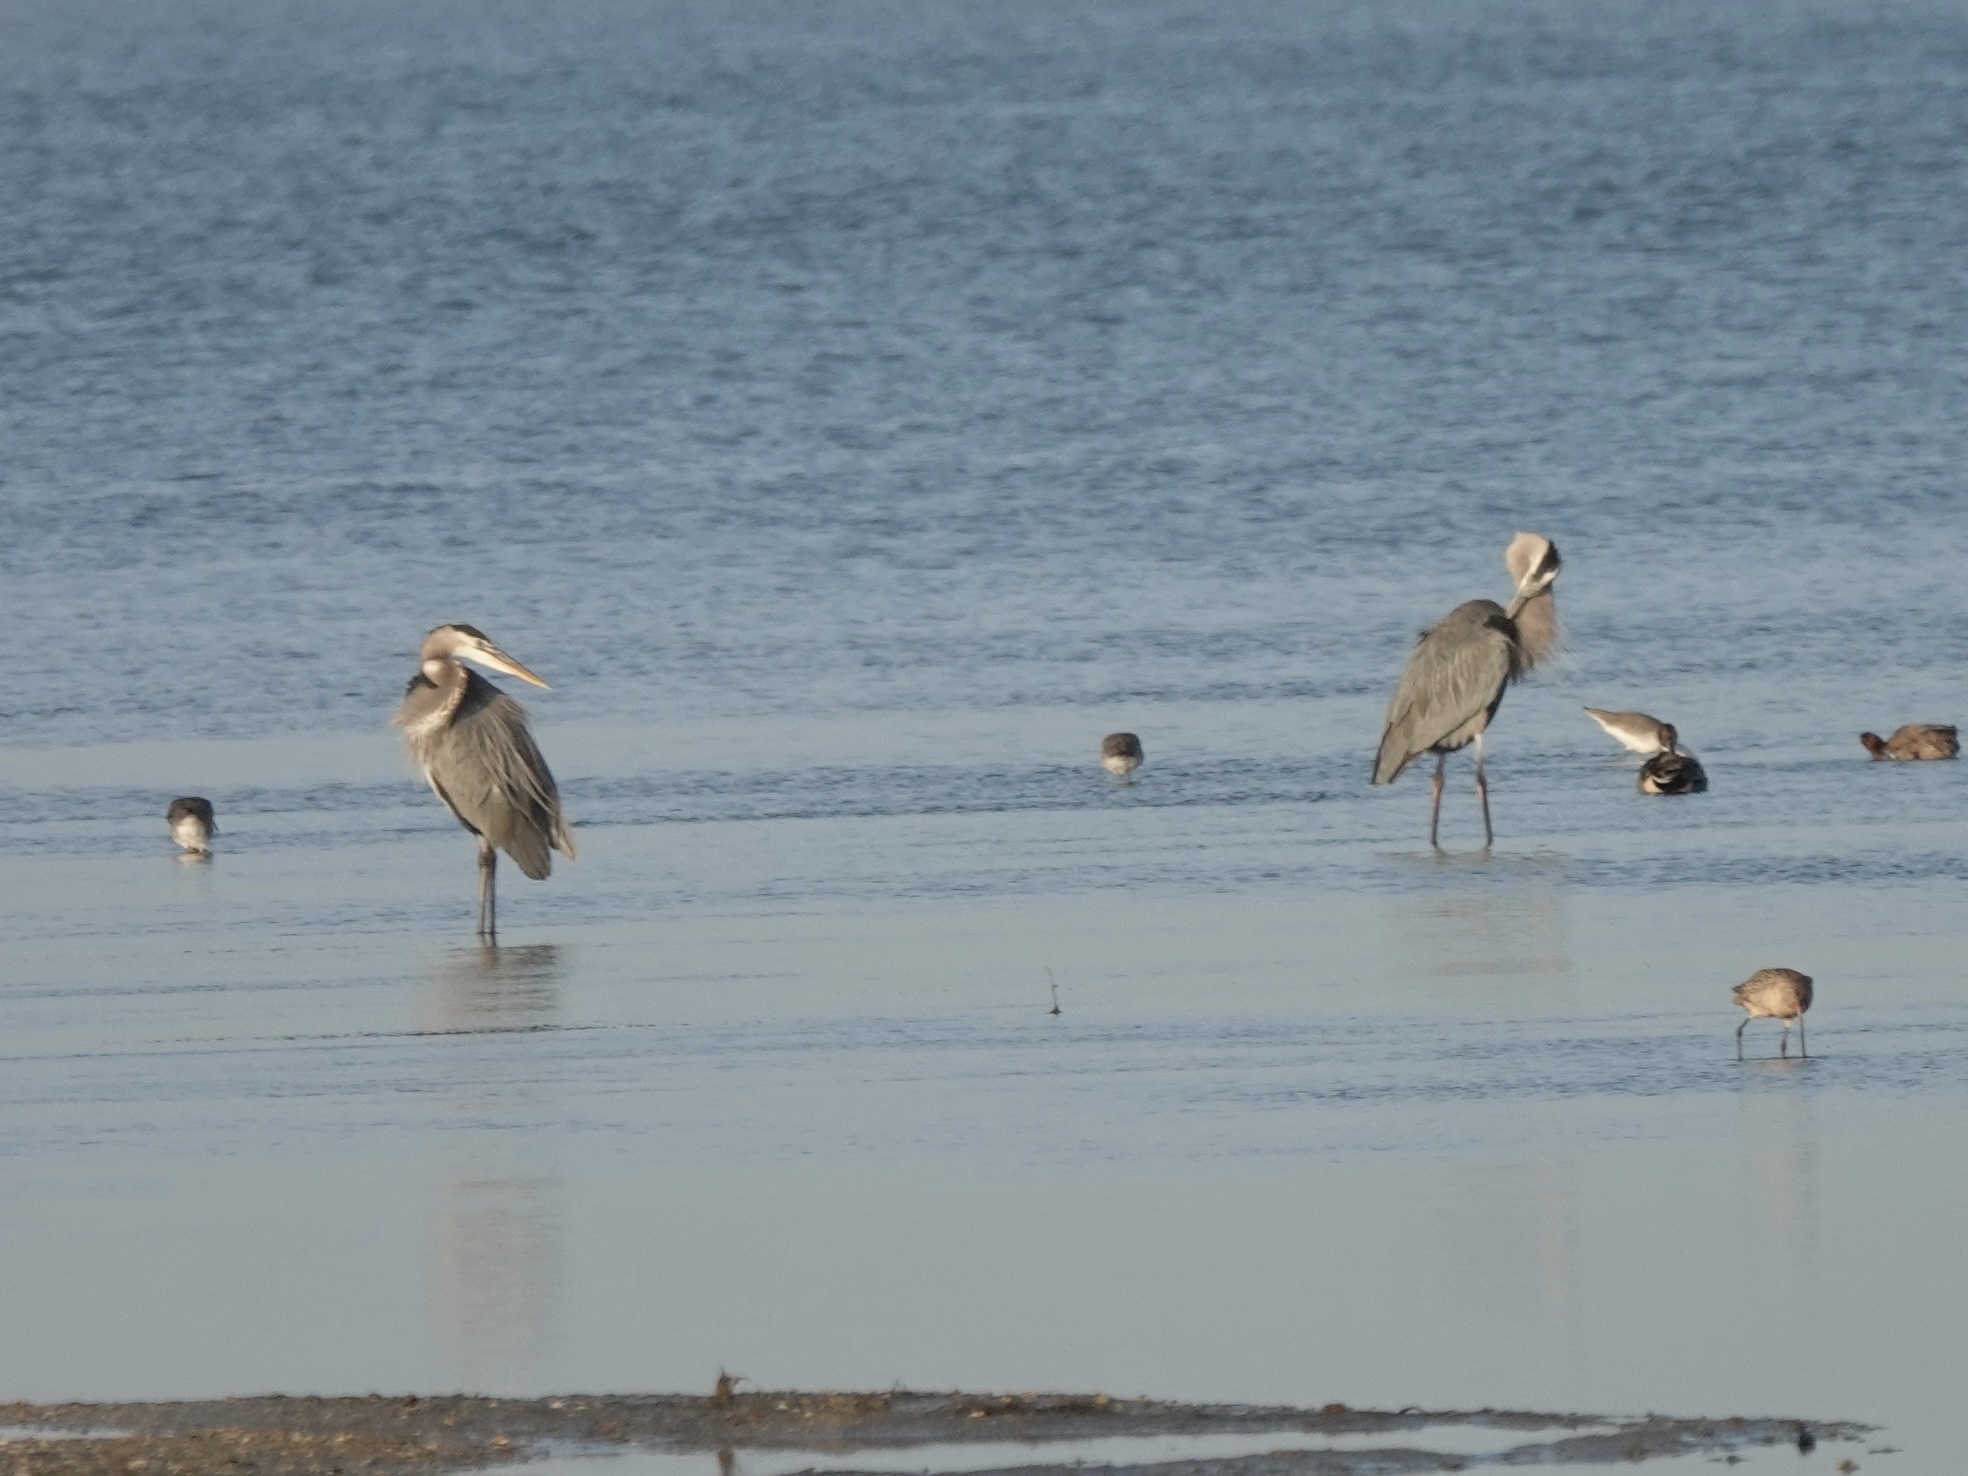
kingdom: Animalia
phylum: Chordata
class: Aves
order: Pelecaniformes
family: Ardeidae
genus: Ardea
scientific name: Ardea herodias
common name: Great blue heron
